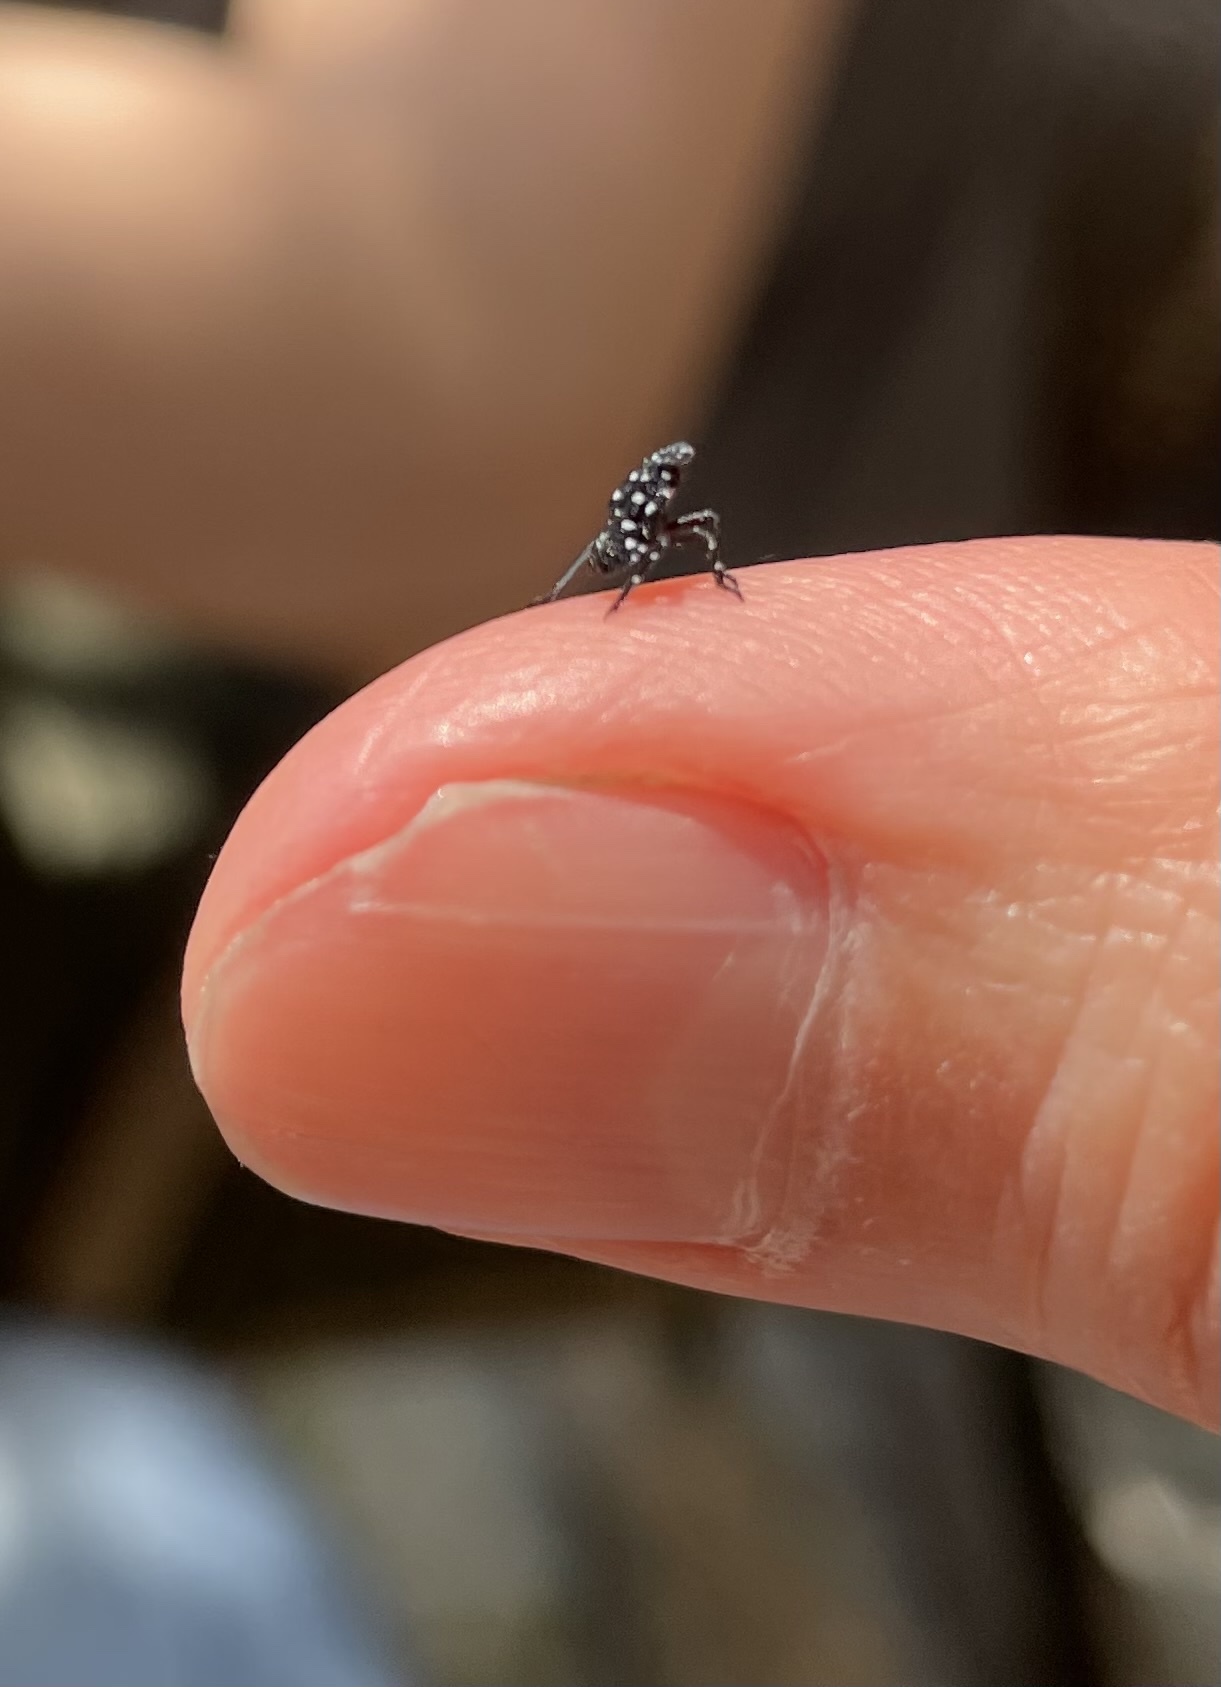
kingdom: Animalia
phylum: Arthropoda
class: Insecta
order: Hemiptera
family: Fulgoridae
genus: Lycorma
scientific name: Lycorma delicatula
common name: Spotted lanternfly
